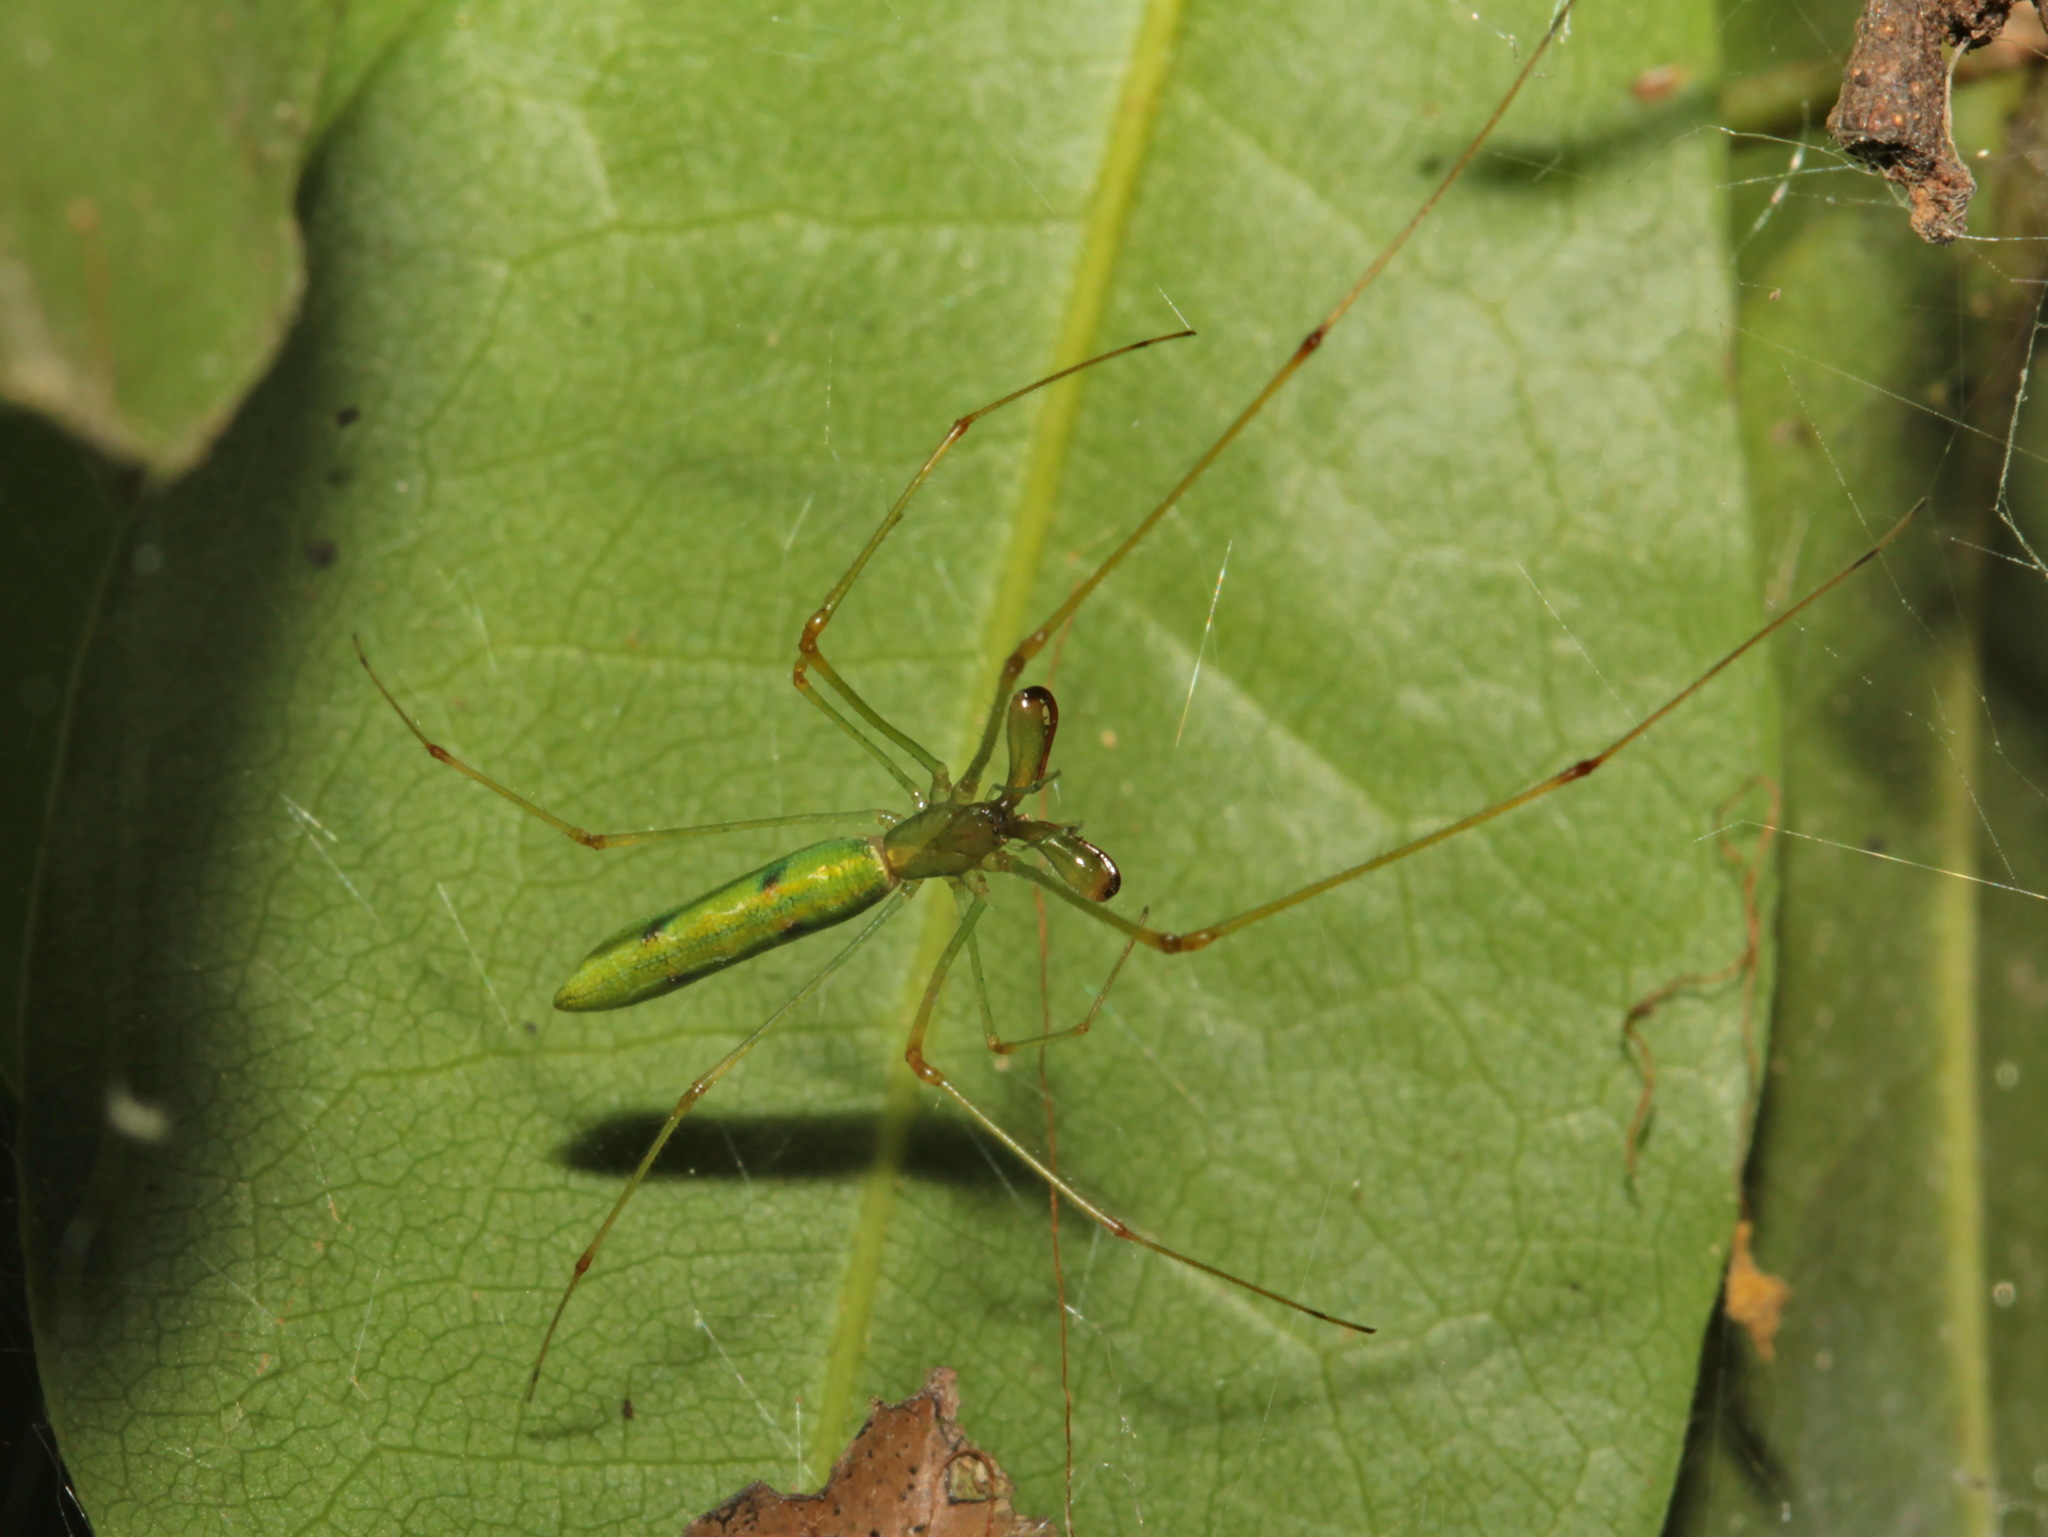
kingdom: Animalia
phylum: Arthropoda
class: Arachnida
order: Araneae
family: Tetragnathidae
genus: Tetragnatha
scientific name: Tetragnatha hasselti
